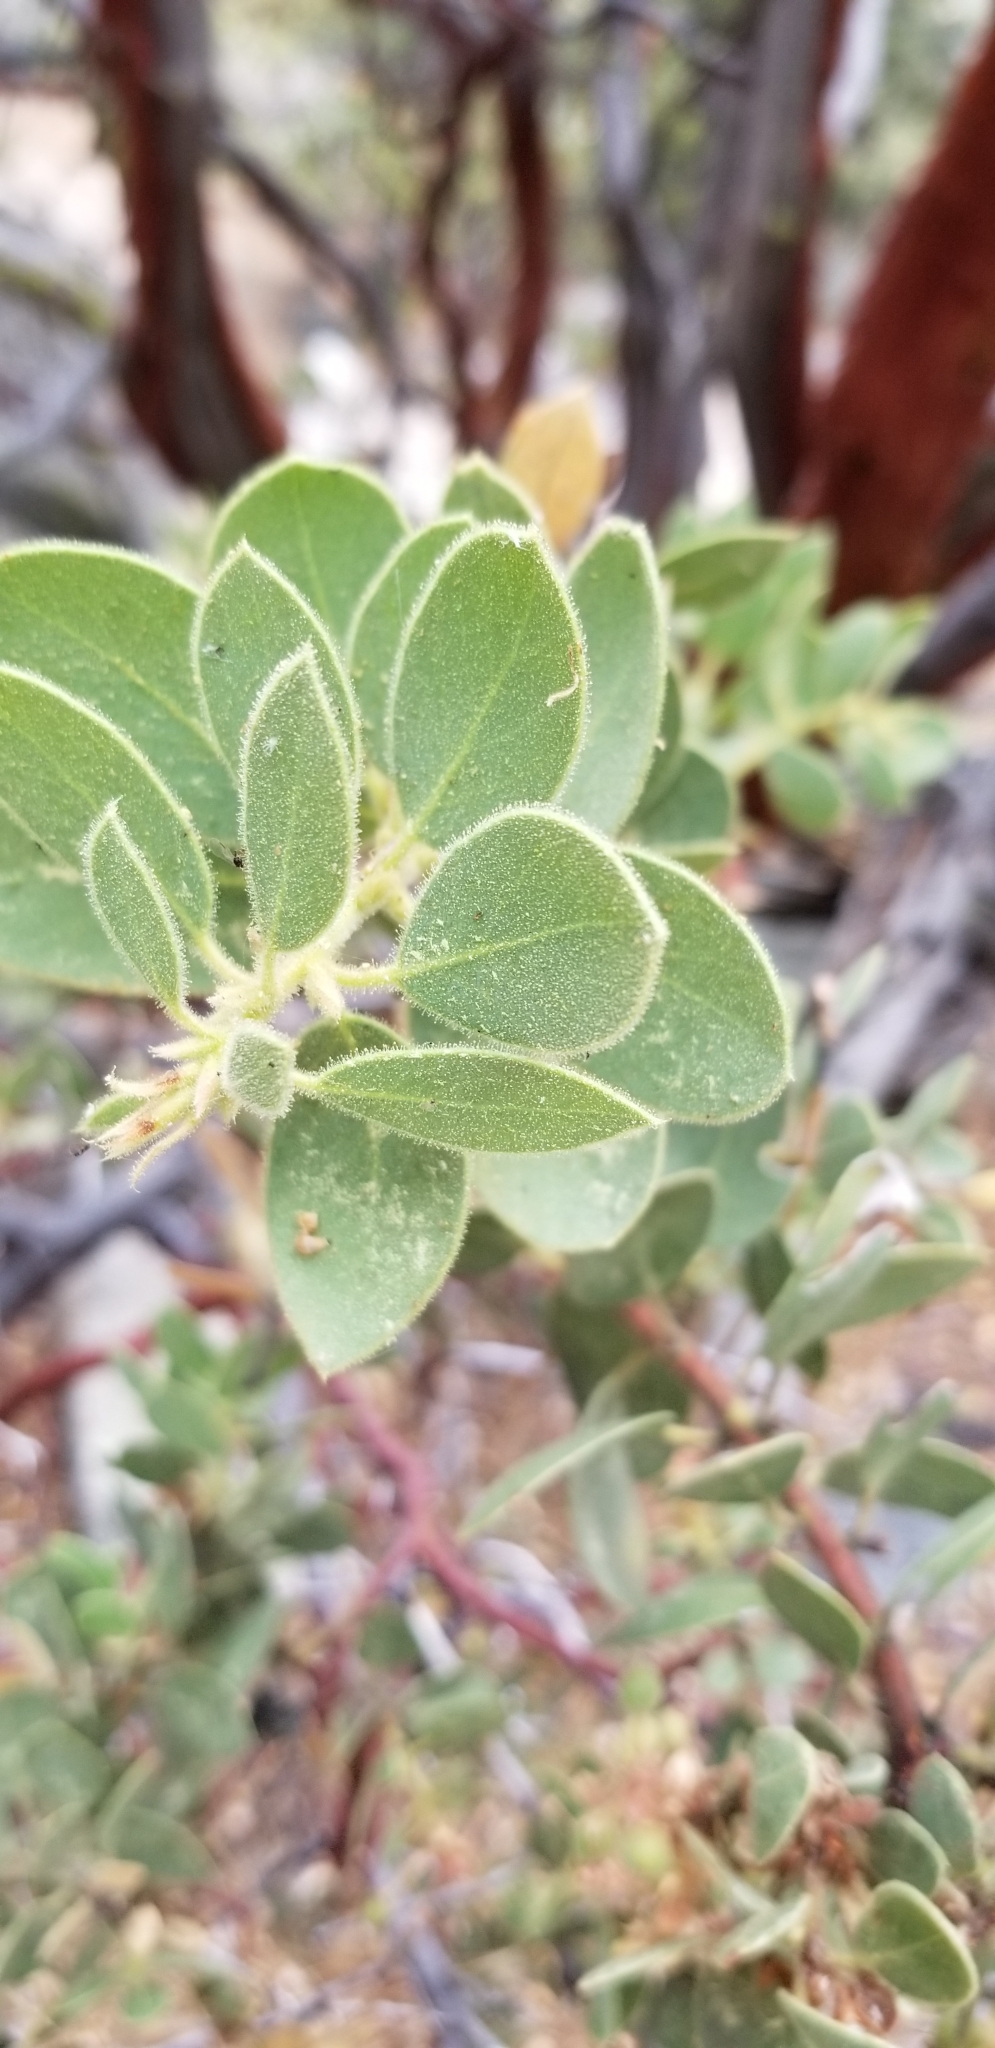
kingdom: Plantae
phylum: Tracheophyta
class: Magnoliopsida
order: Ericales
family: Ericaceae
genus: Arctostaphylos
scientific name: Arctostaphylos pringlei
